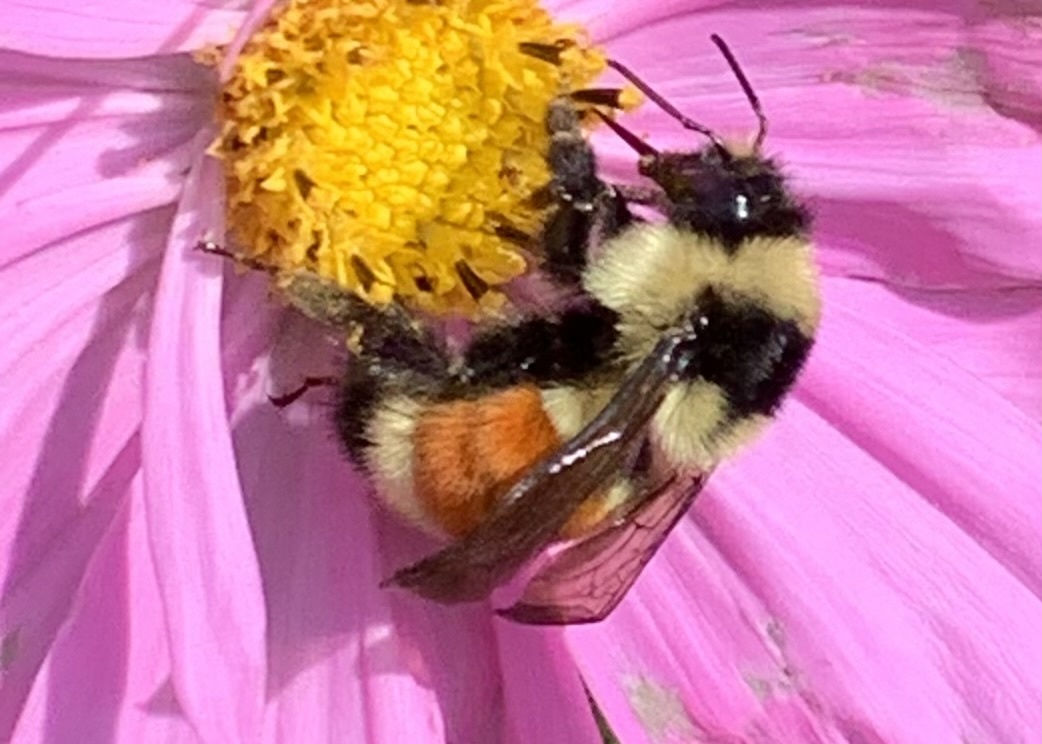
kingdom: Animalia
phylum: Arthropoda
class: Insecta
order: Hymenoptera
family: Apidae
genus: Bombus
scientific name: Bombus ternarius
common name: Tri-colored bumble bee
